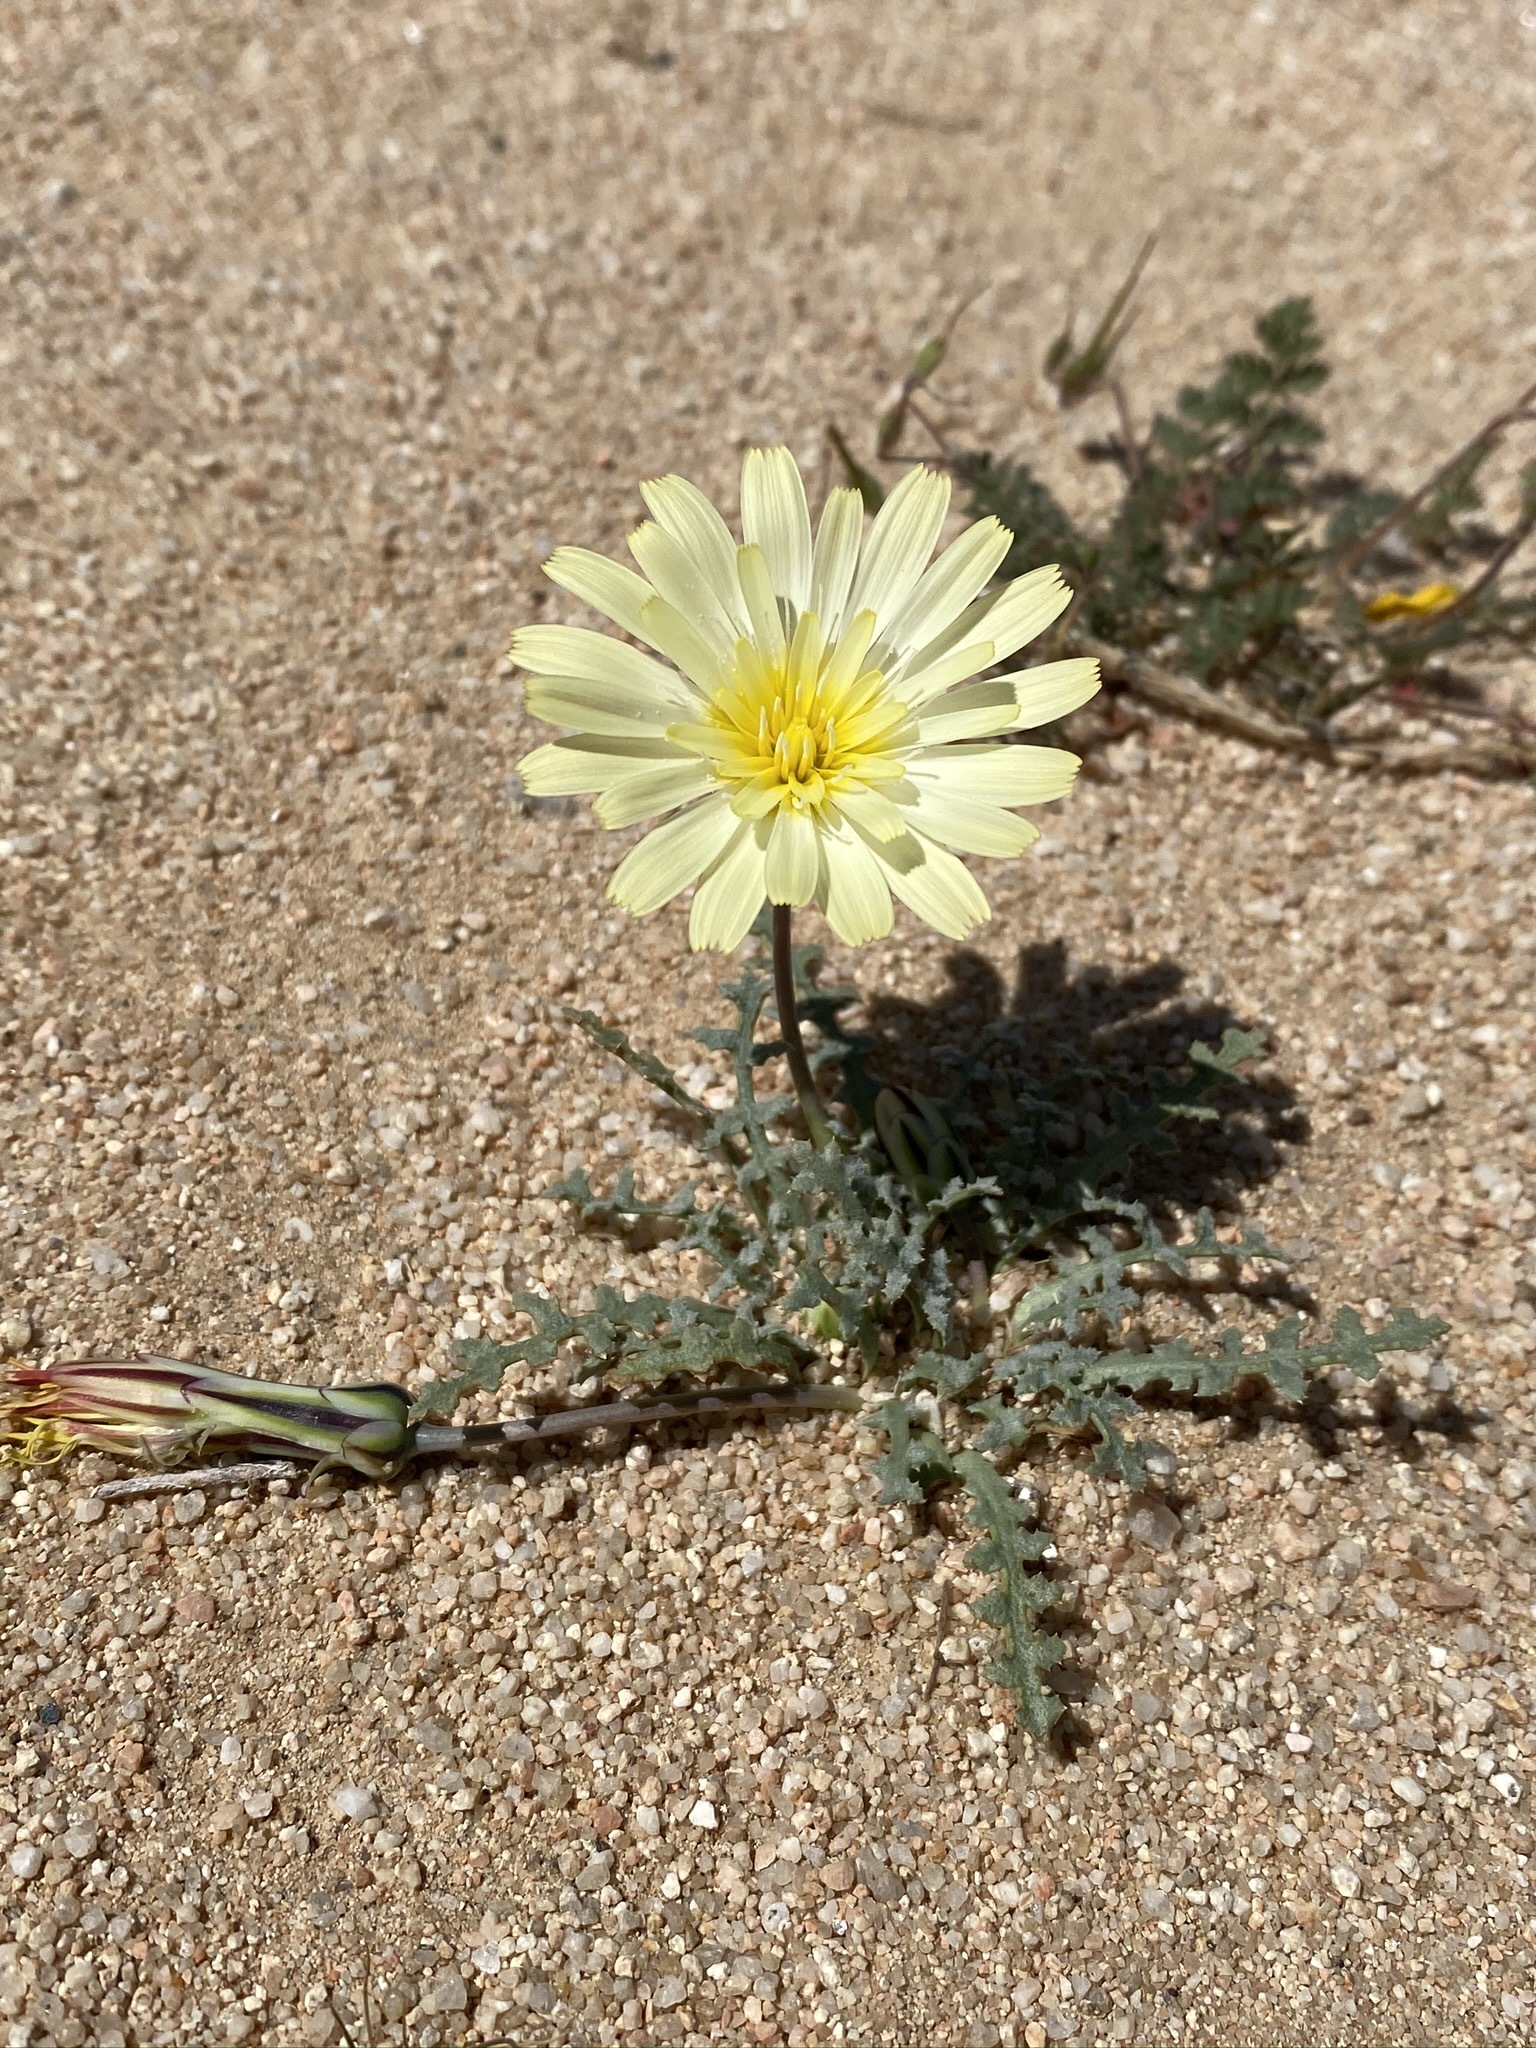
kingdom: Plantae
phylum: Tracheophyta
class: Magnoliopsida
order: Asterales
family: Asteraceae
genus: Anisocoma
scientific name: Anisocoma acaulis
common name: Scalebud
